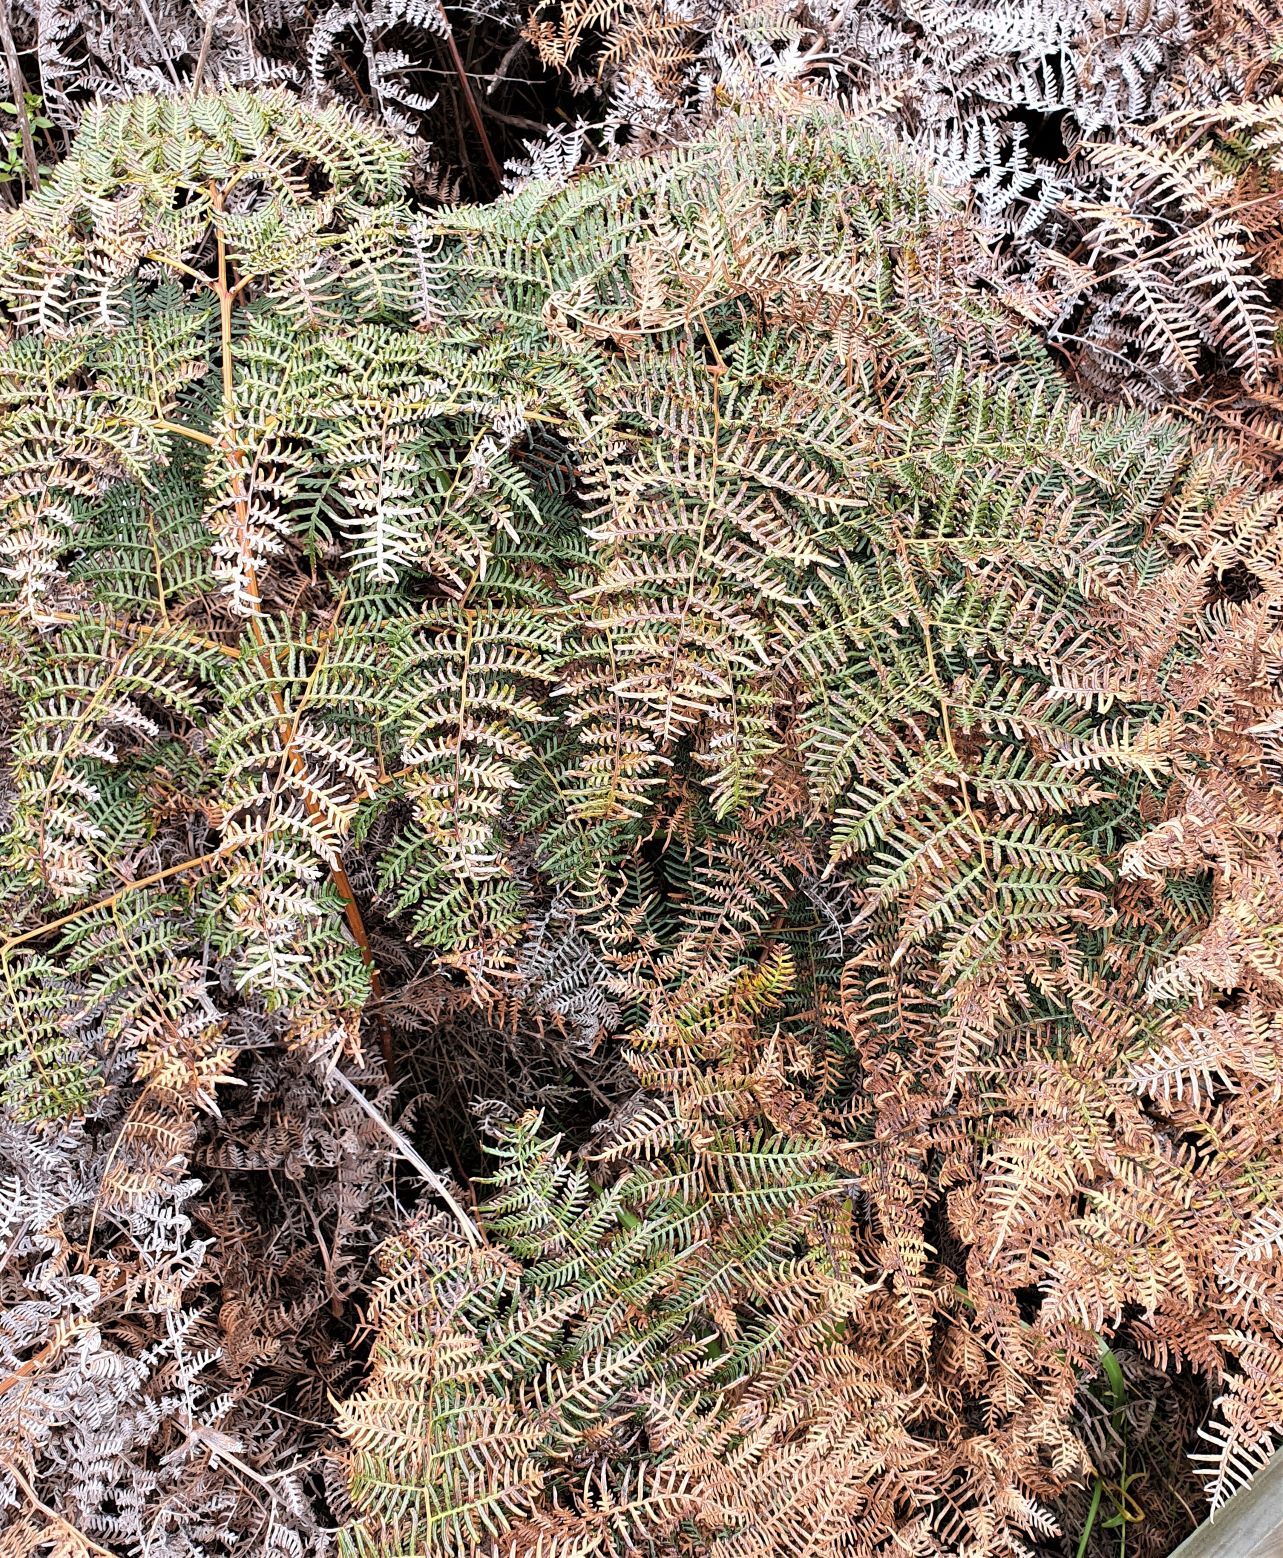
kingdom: Plantae
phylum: Tracheophyta
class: Polypodiopsida
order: Polypodiales
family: Dennstaedtiaceae
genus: Pteridium
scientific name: Pteridium esculentum
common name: Bracken fern
